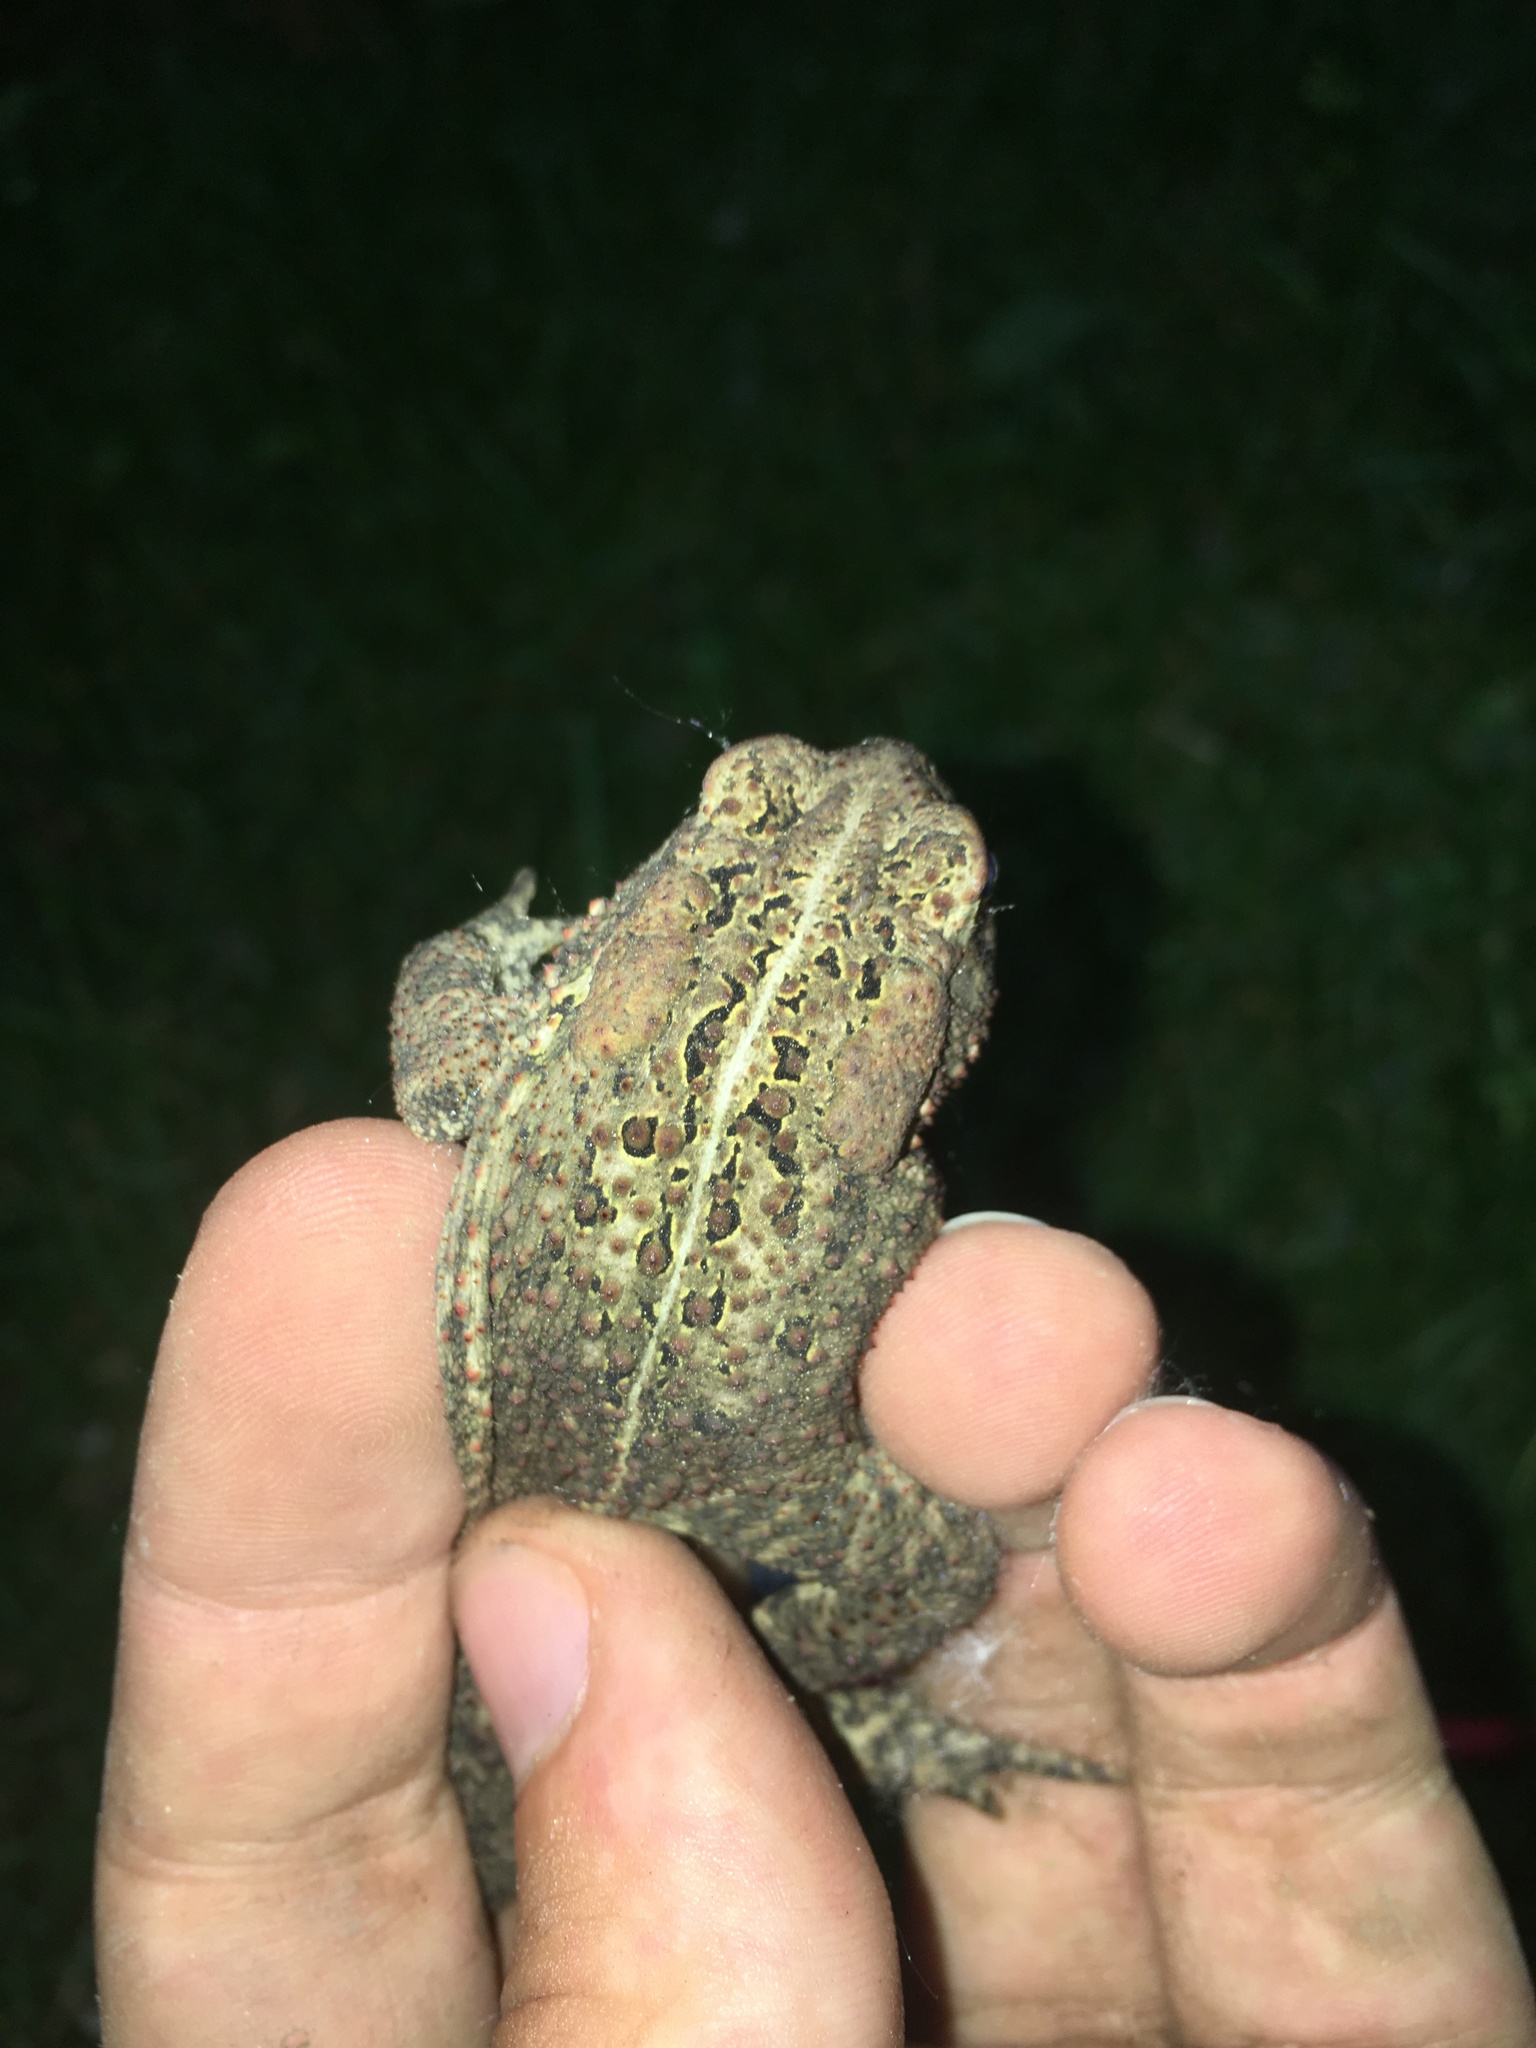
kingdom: Animalia
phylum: Chordata
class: Amphibia
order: Anura
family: Bufonidae
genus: Anaxyrus
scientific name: Anaxyrus americanus
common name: American toad
